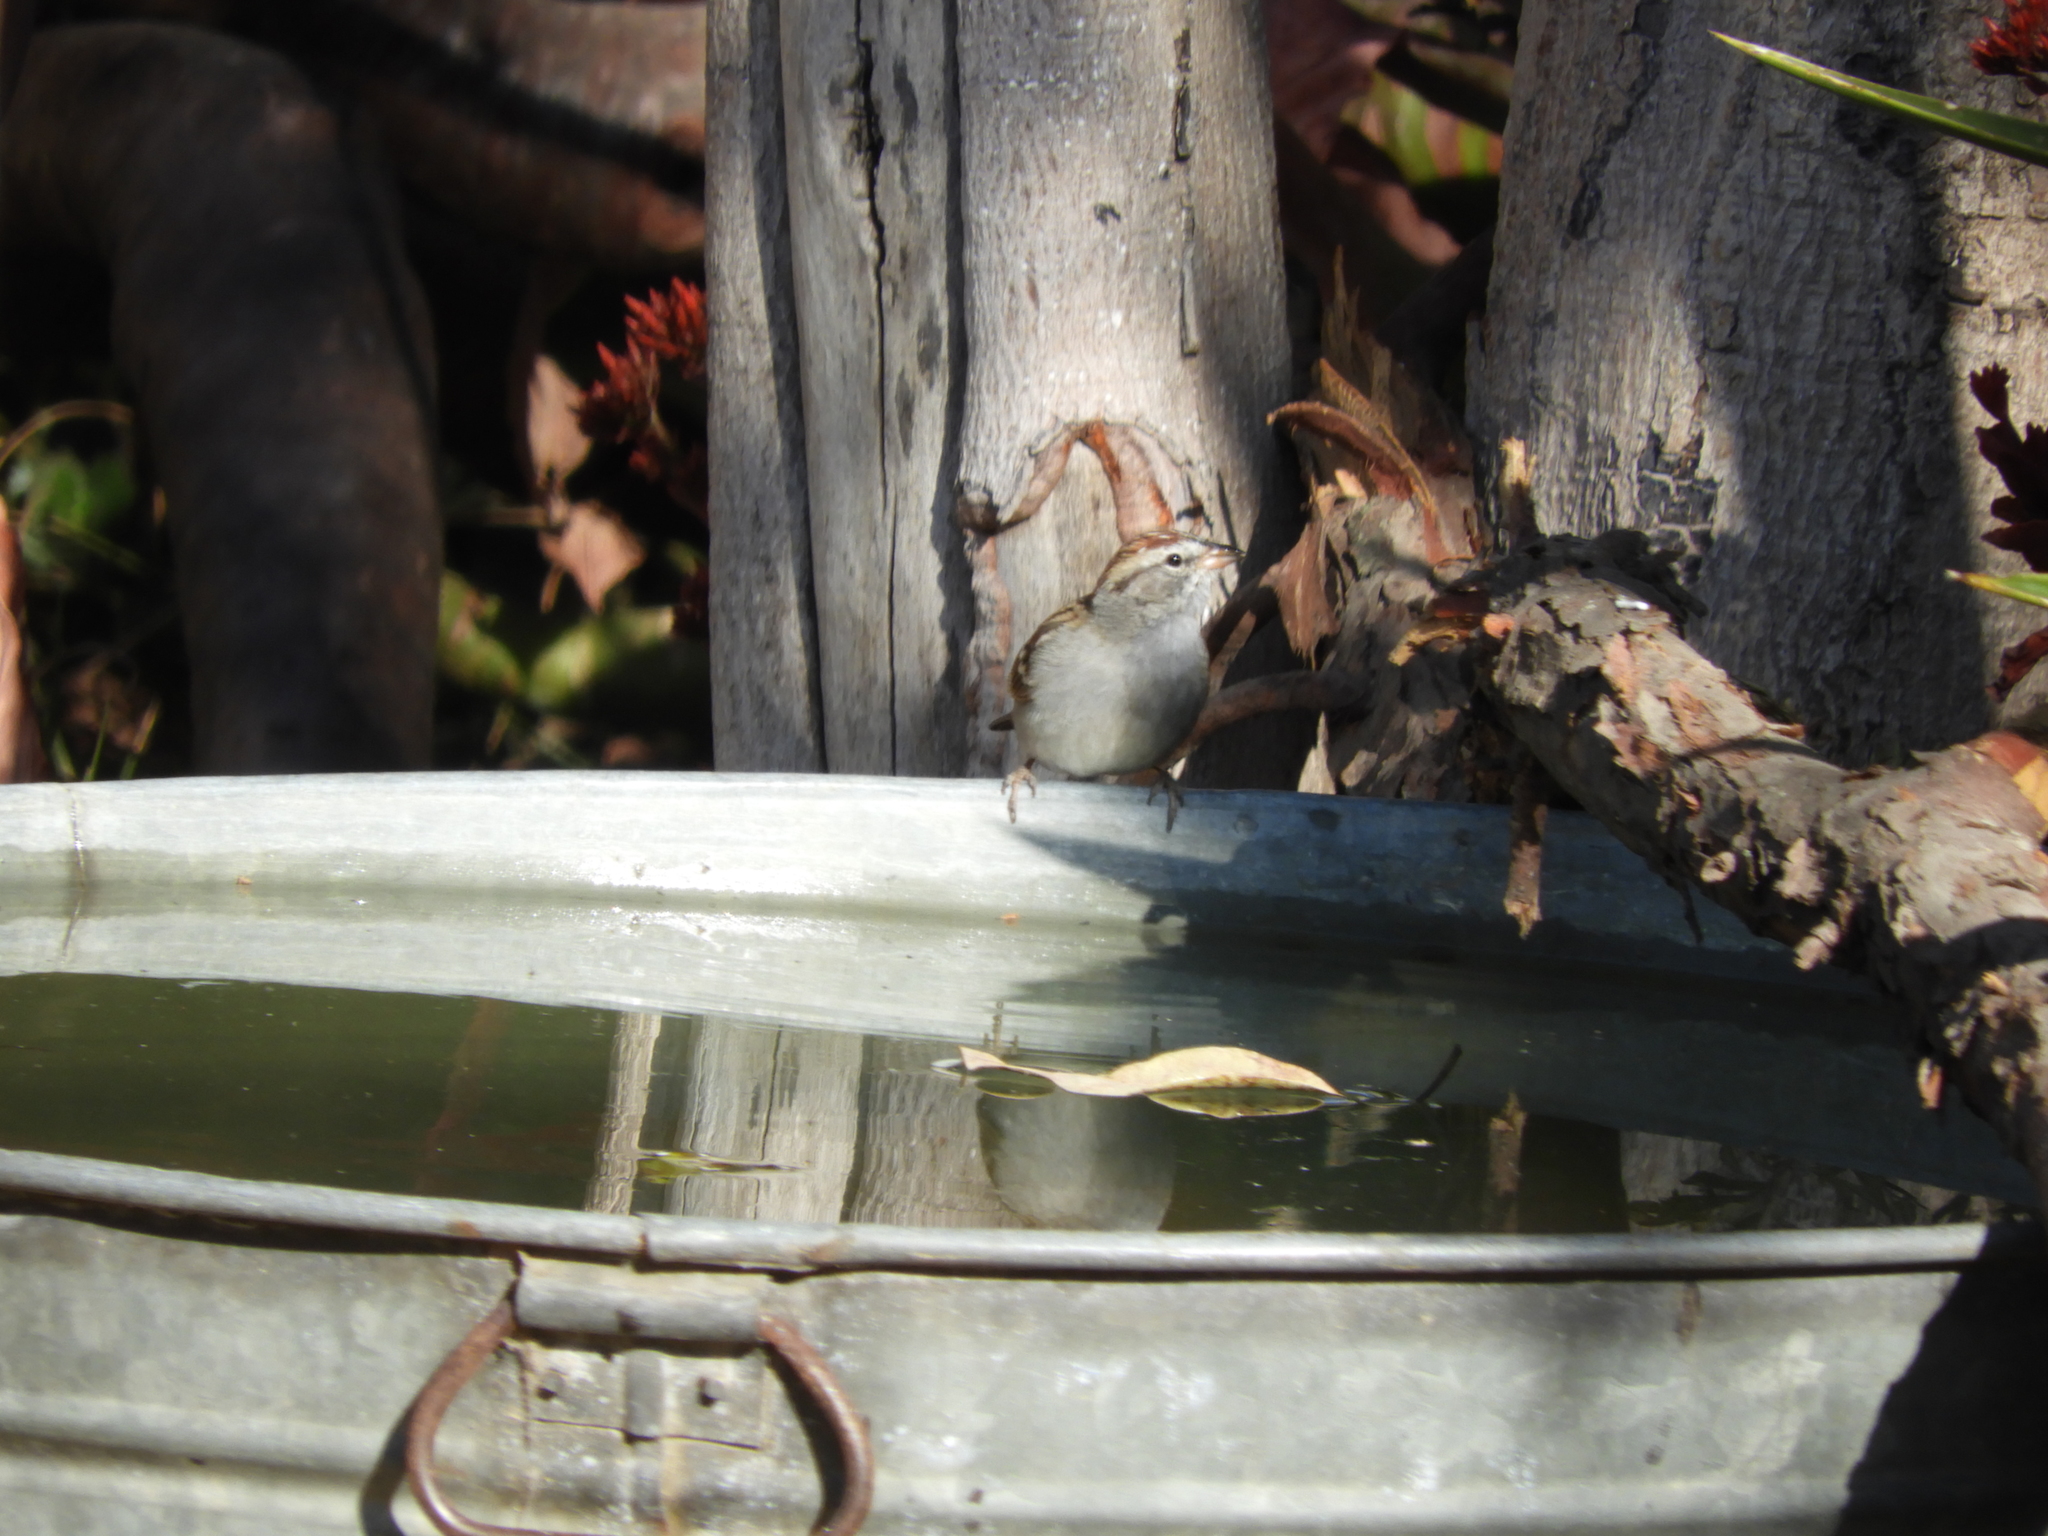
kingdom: Animalia
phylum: Chordata
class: Aves
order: Passeriformes
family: Passerellidae
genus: Spizella
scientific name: Spizella passerina
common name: Chipping sparrow
